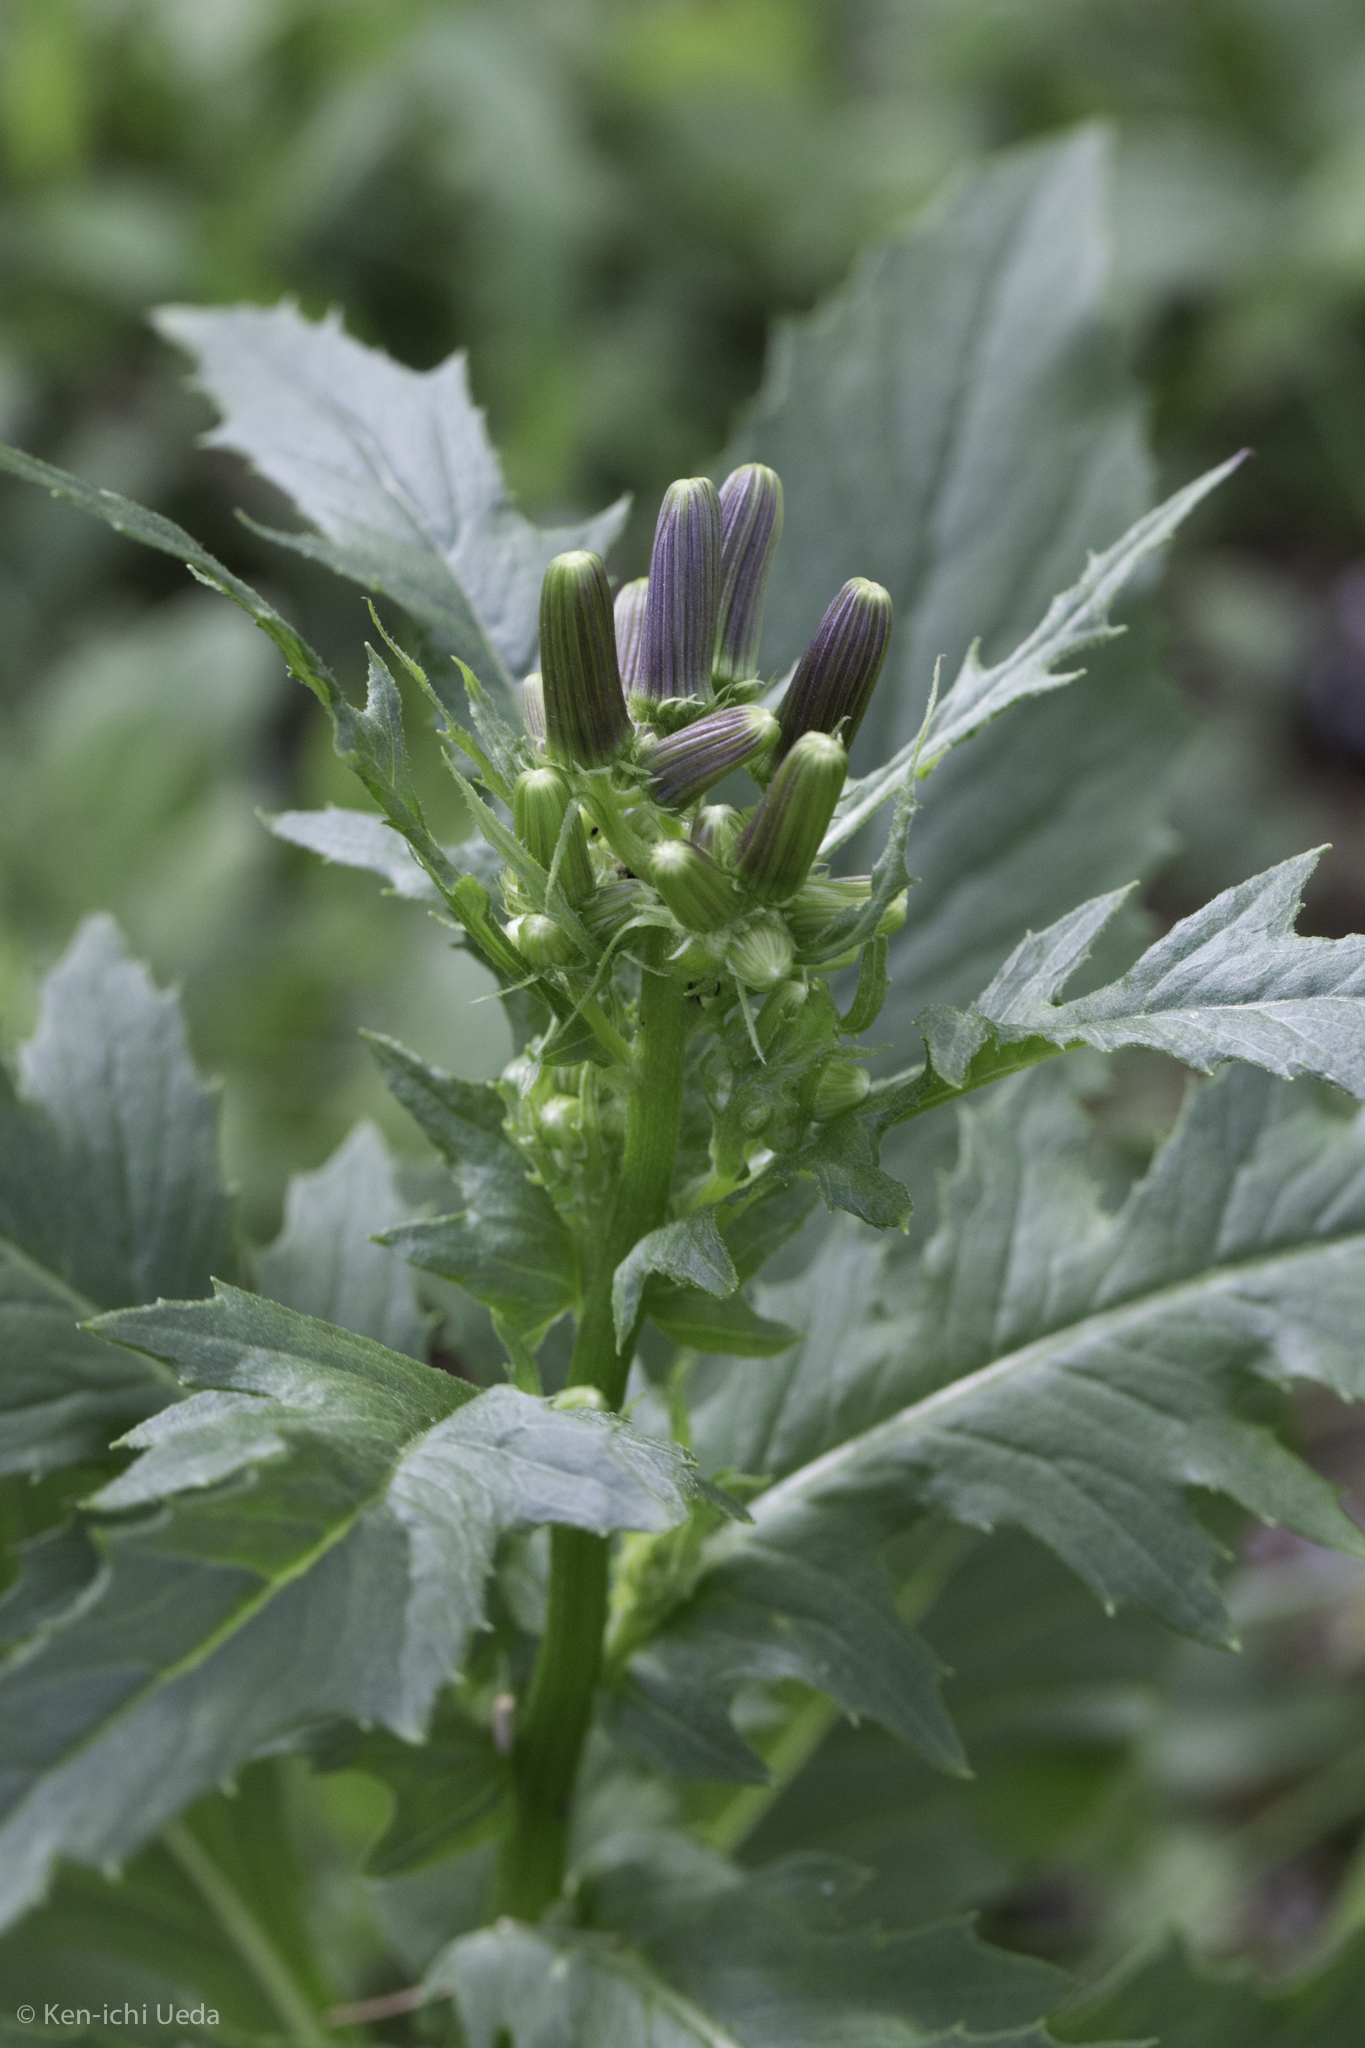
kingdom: Plantae
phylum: Tracheophyta
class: Magnoliopsida
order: Asterales
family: Asteraceae
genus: Erechtites
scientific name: Erechtites hieraciifolius
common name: American burnweed
